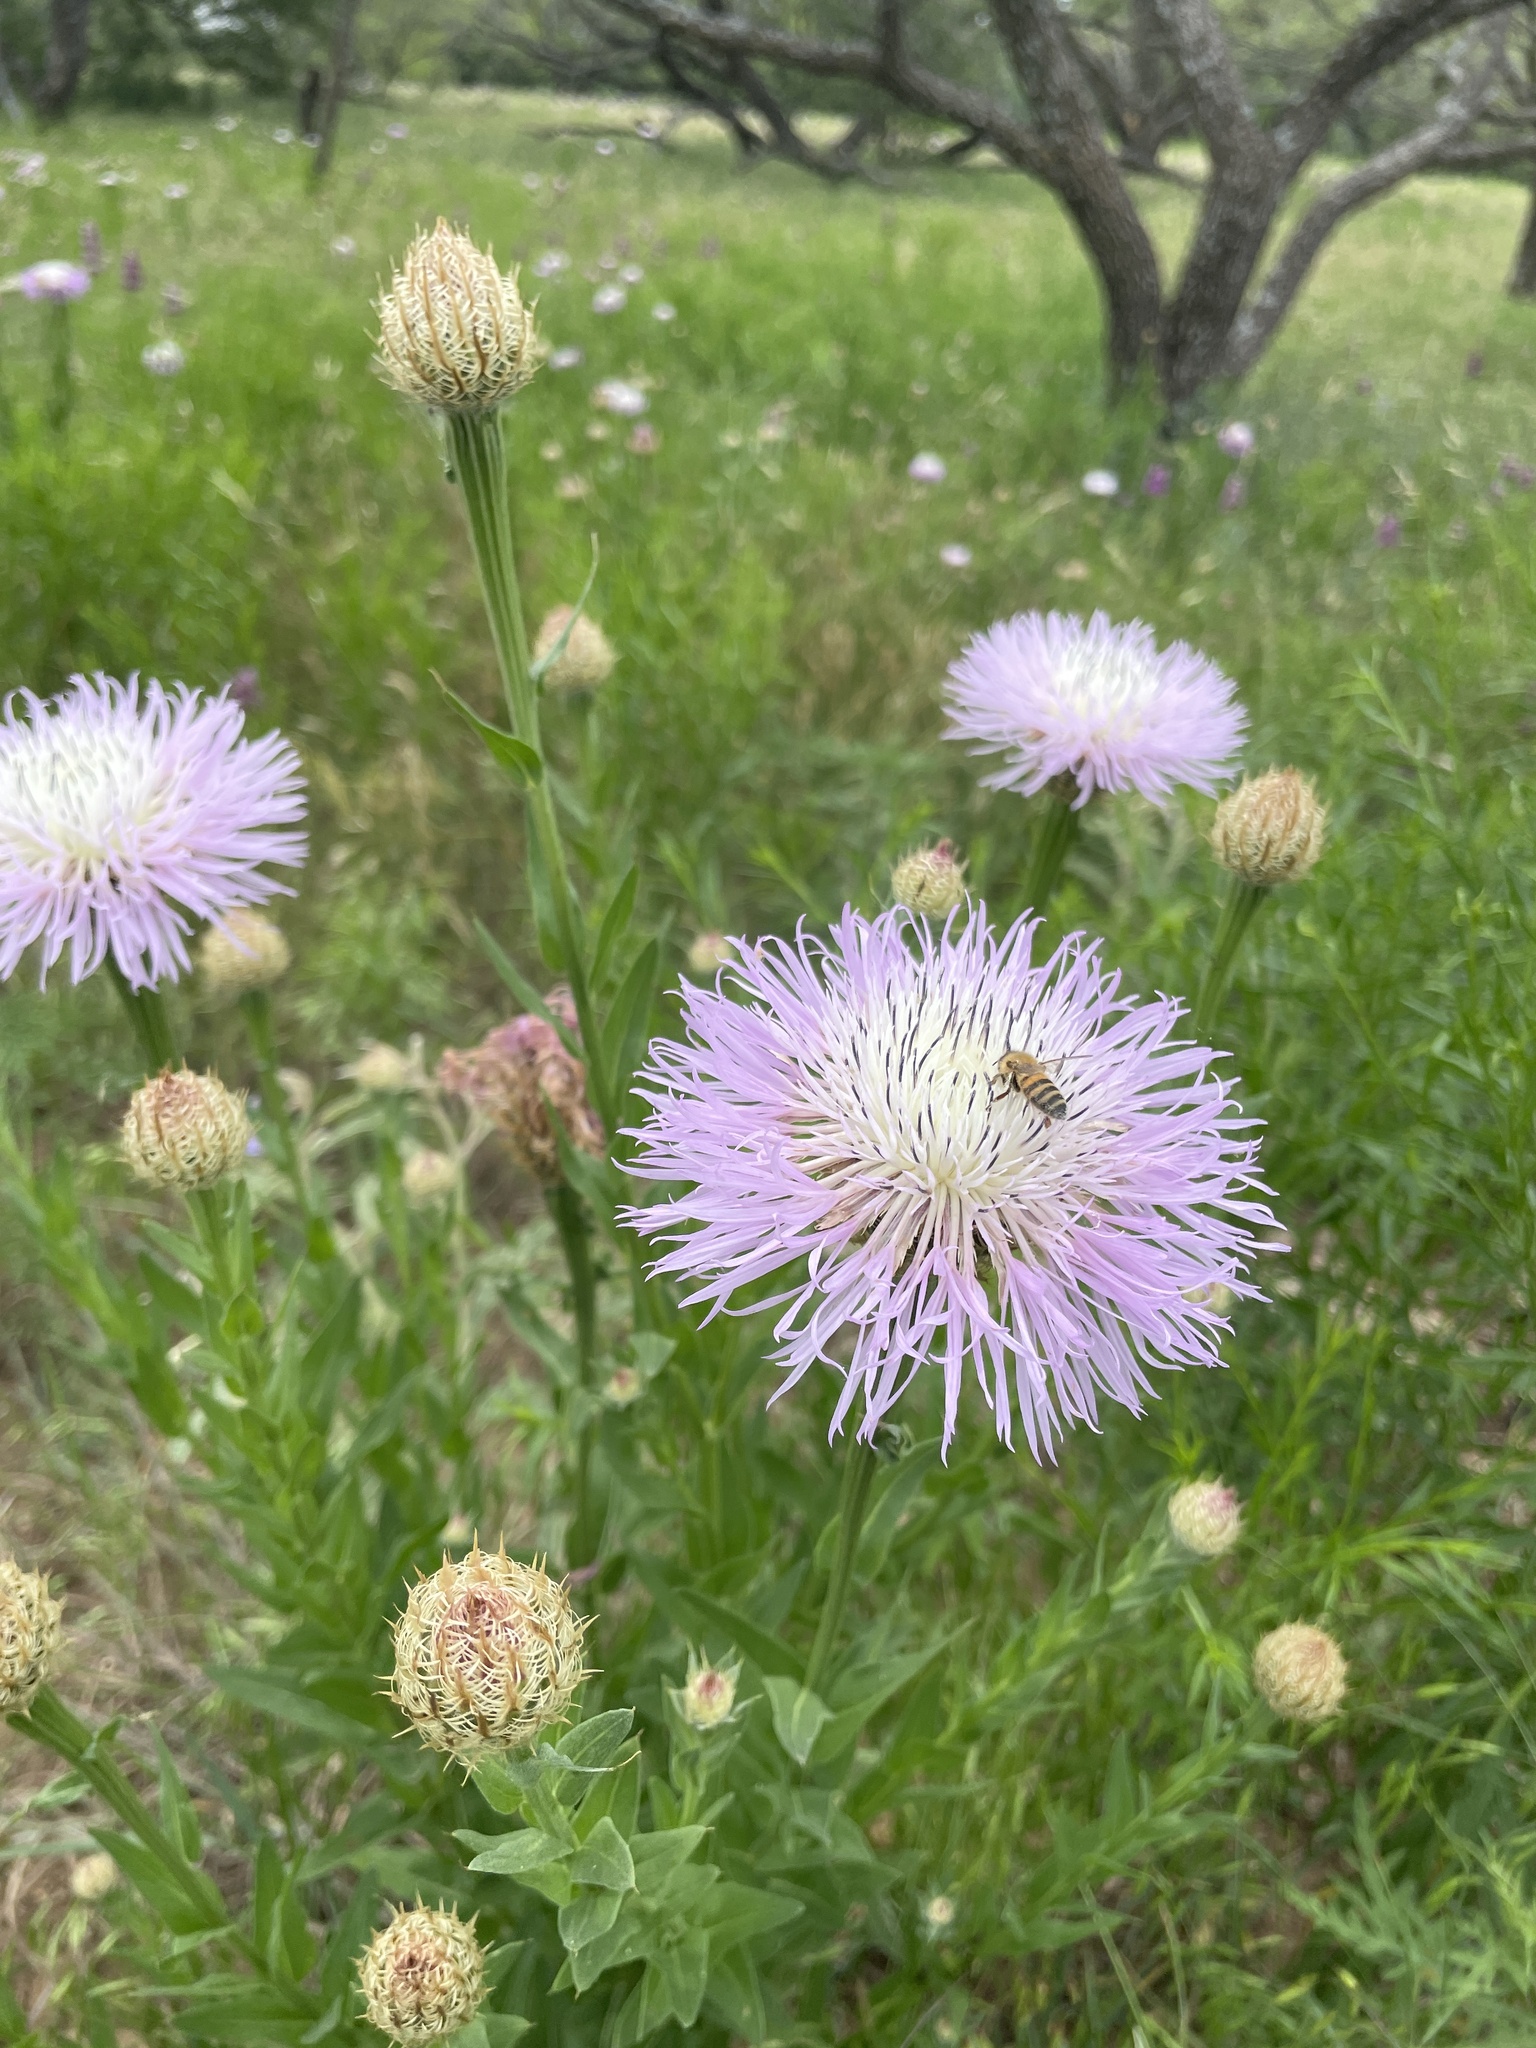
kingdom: Plantae
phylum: Tracheophyta
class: Magnoliopsida
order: Asterales
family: Asteraceae
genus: Plectocephalus
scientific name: Plectocephalus americanus
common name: American basket-flower
